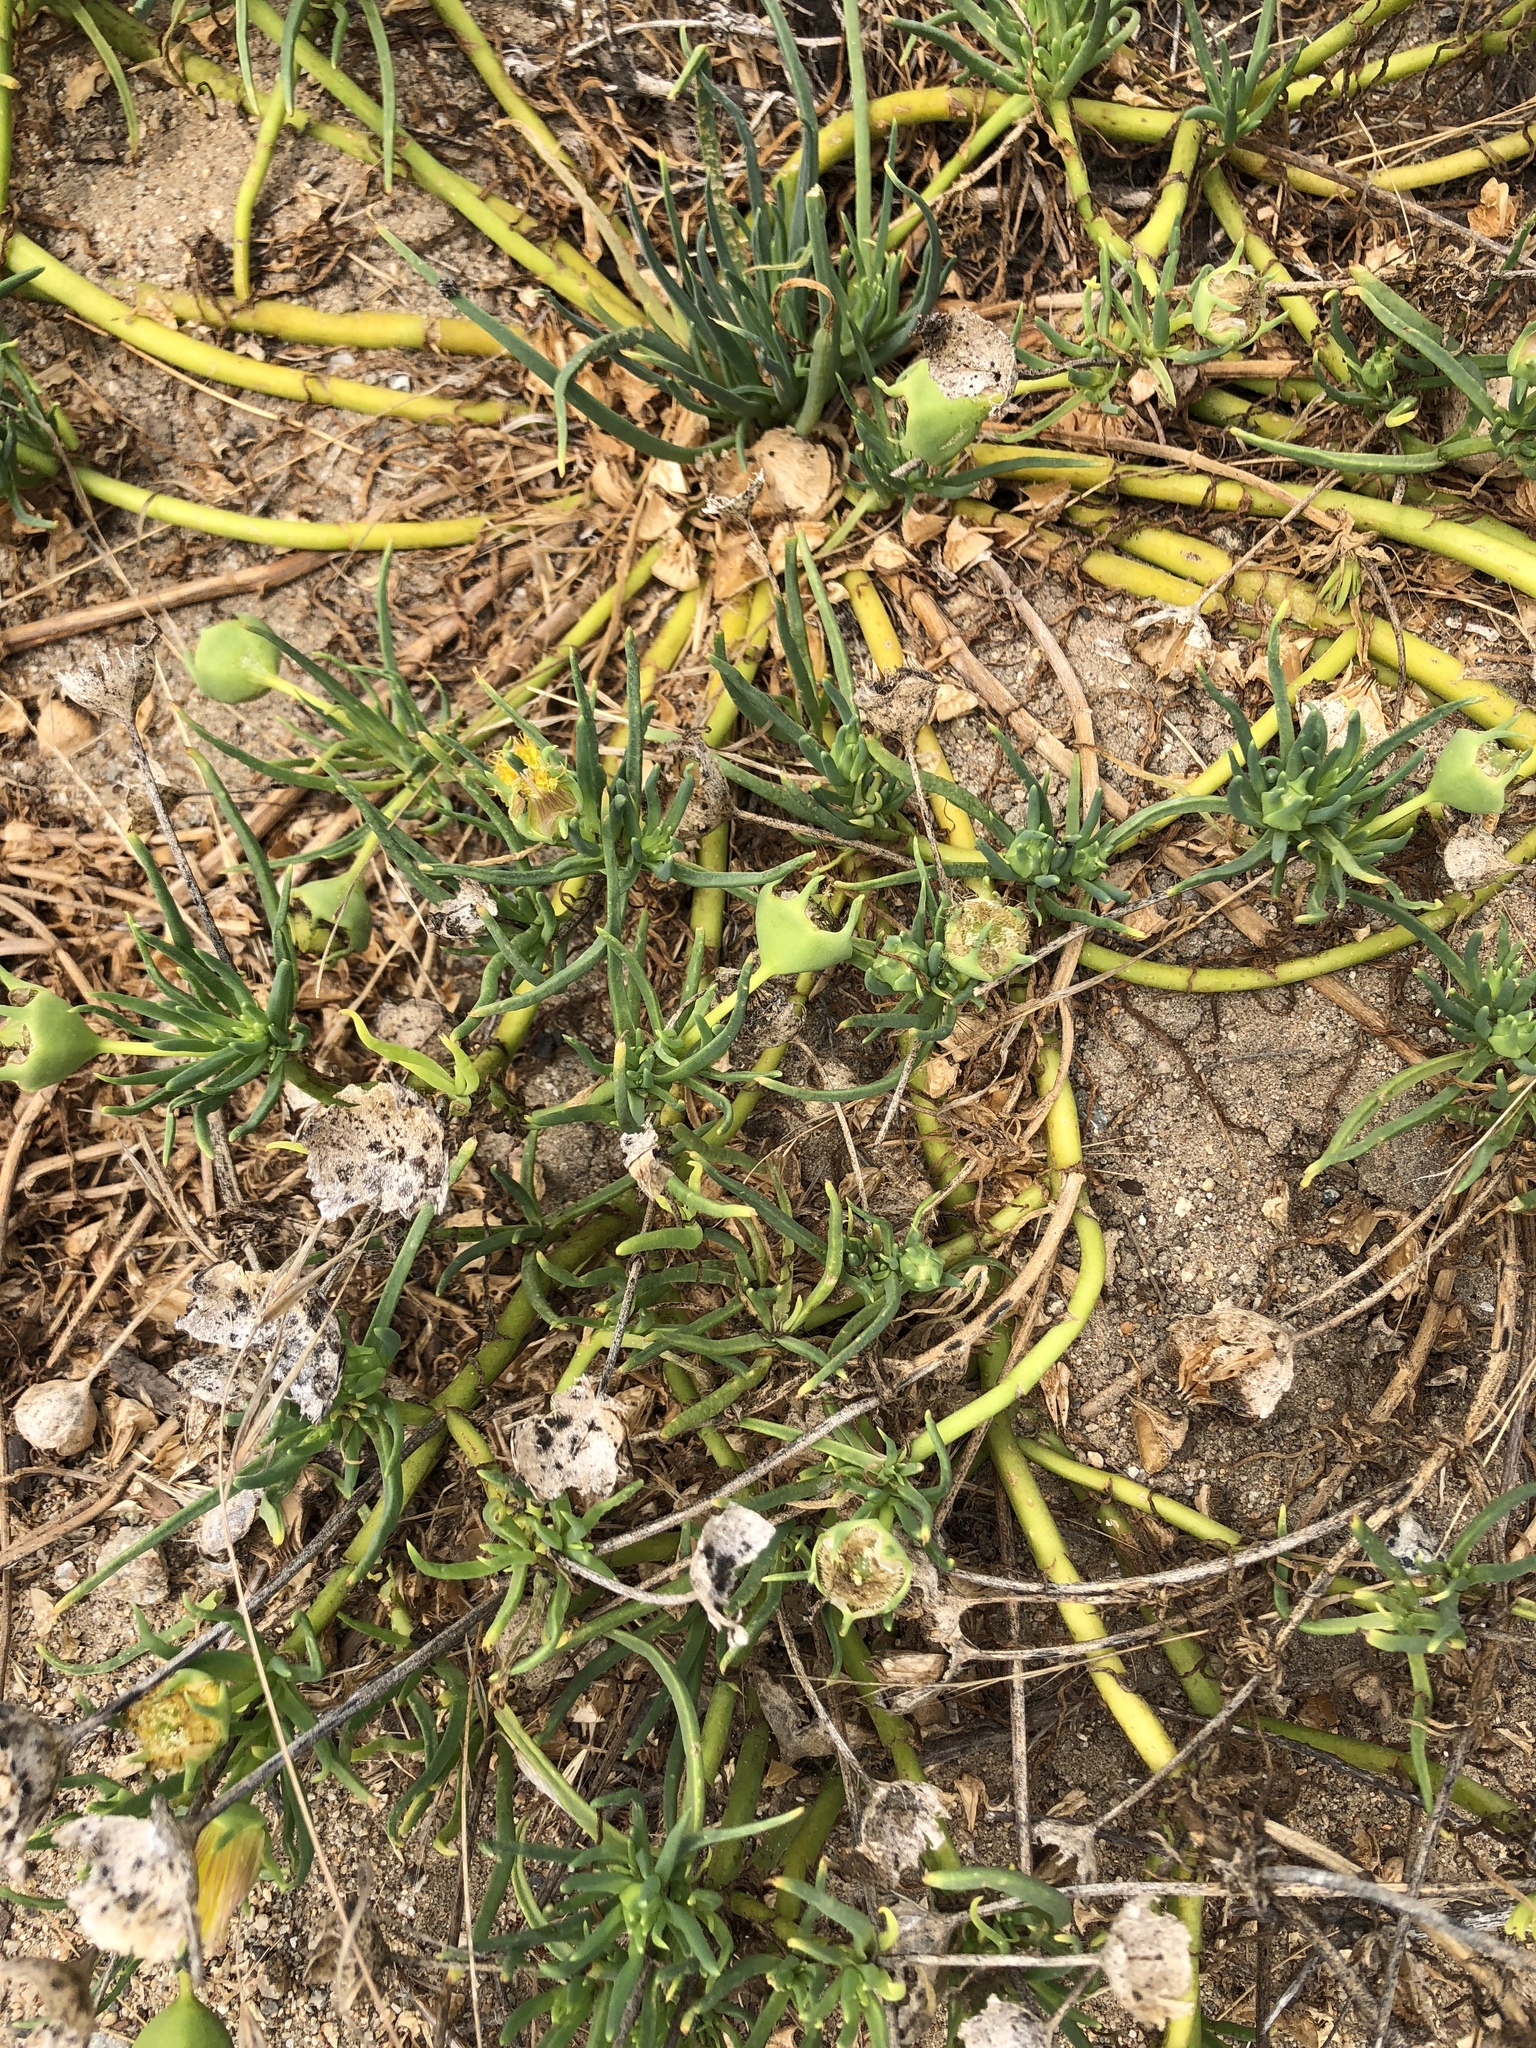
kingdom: Plantae
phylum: Tracheophyta
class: Magnoliopsida
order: Caryophyllales
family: Aizoaceae
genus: Conicosia
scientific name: Conicosia pugioniformis
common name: Narrow-leaved iceplant
